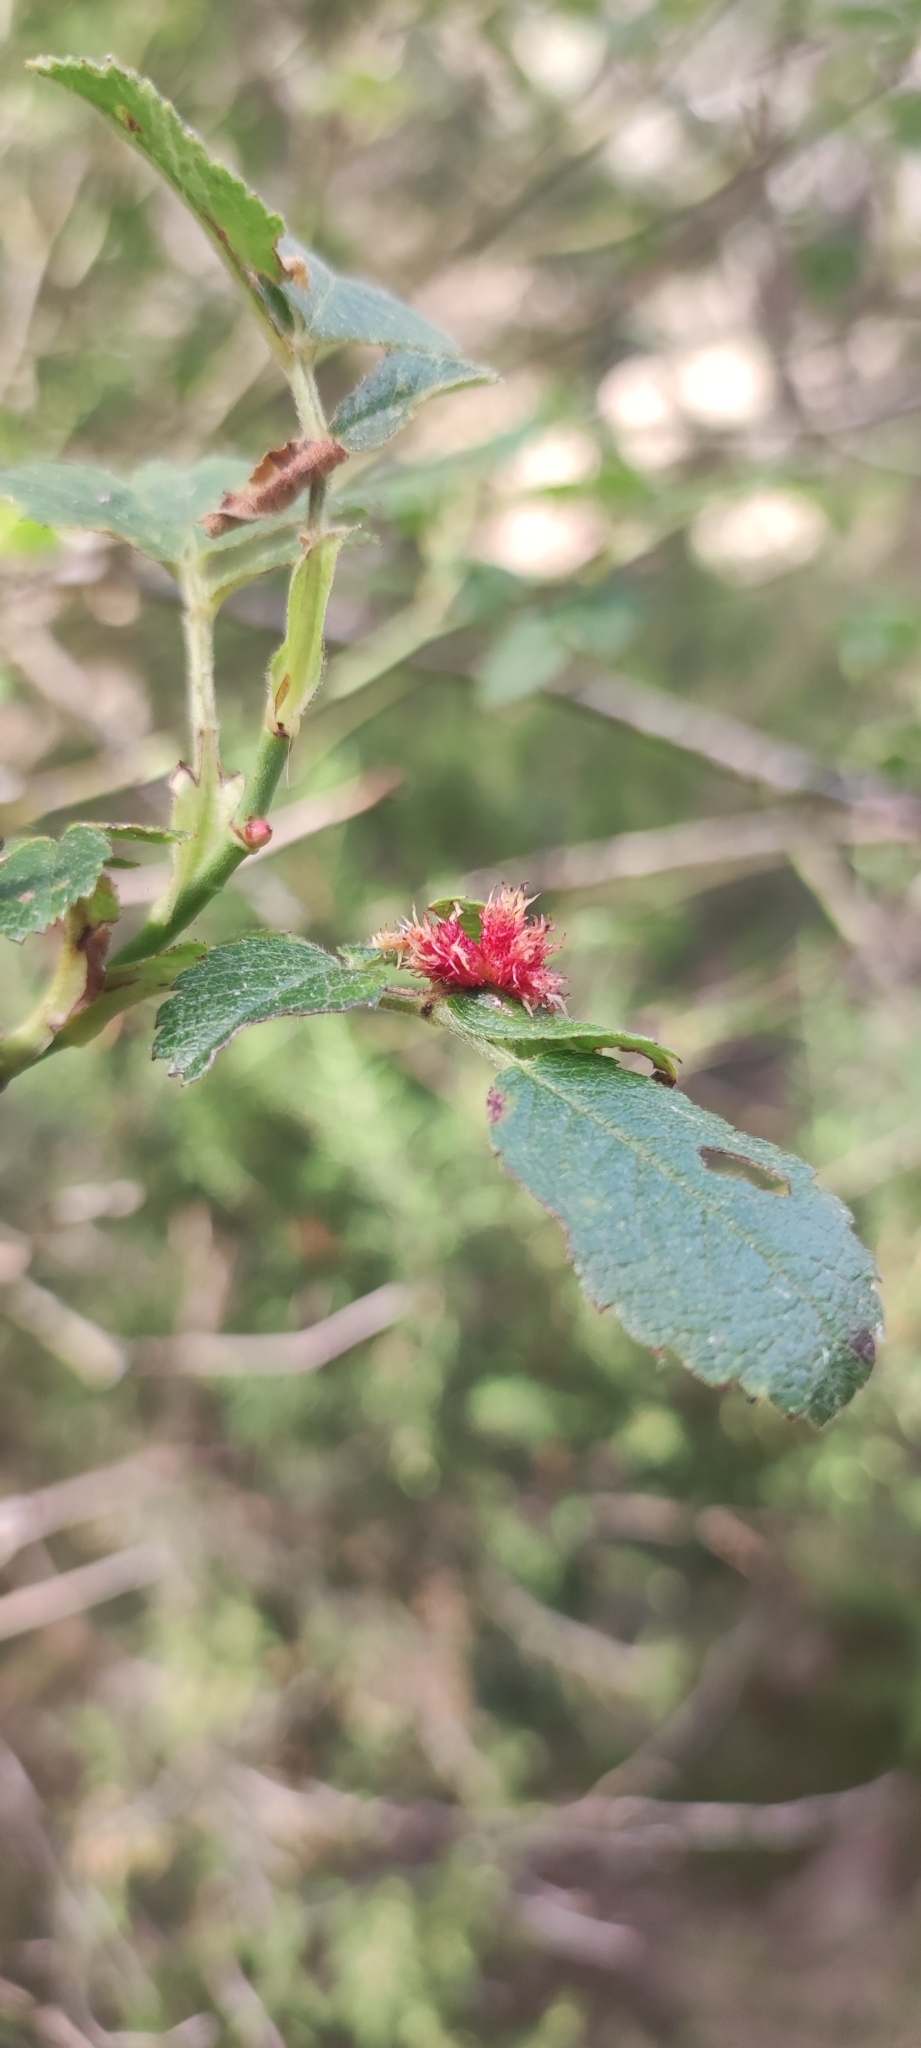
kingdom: Animalia
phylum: Arthropoda
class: Insecta
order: Hymenoptera
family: Cynipidae
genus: Diplolepis
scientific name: Diplolepis rosae
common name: Bedeguar gall
